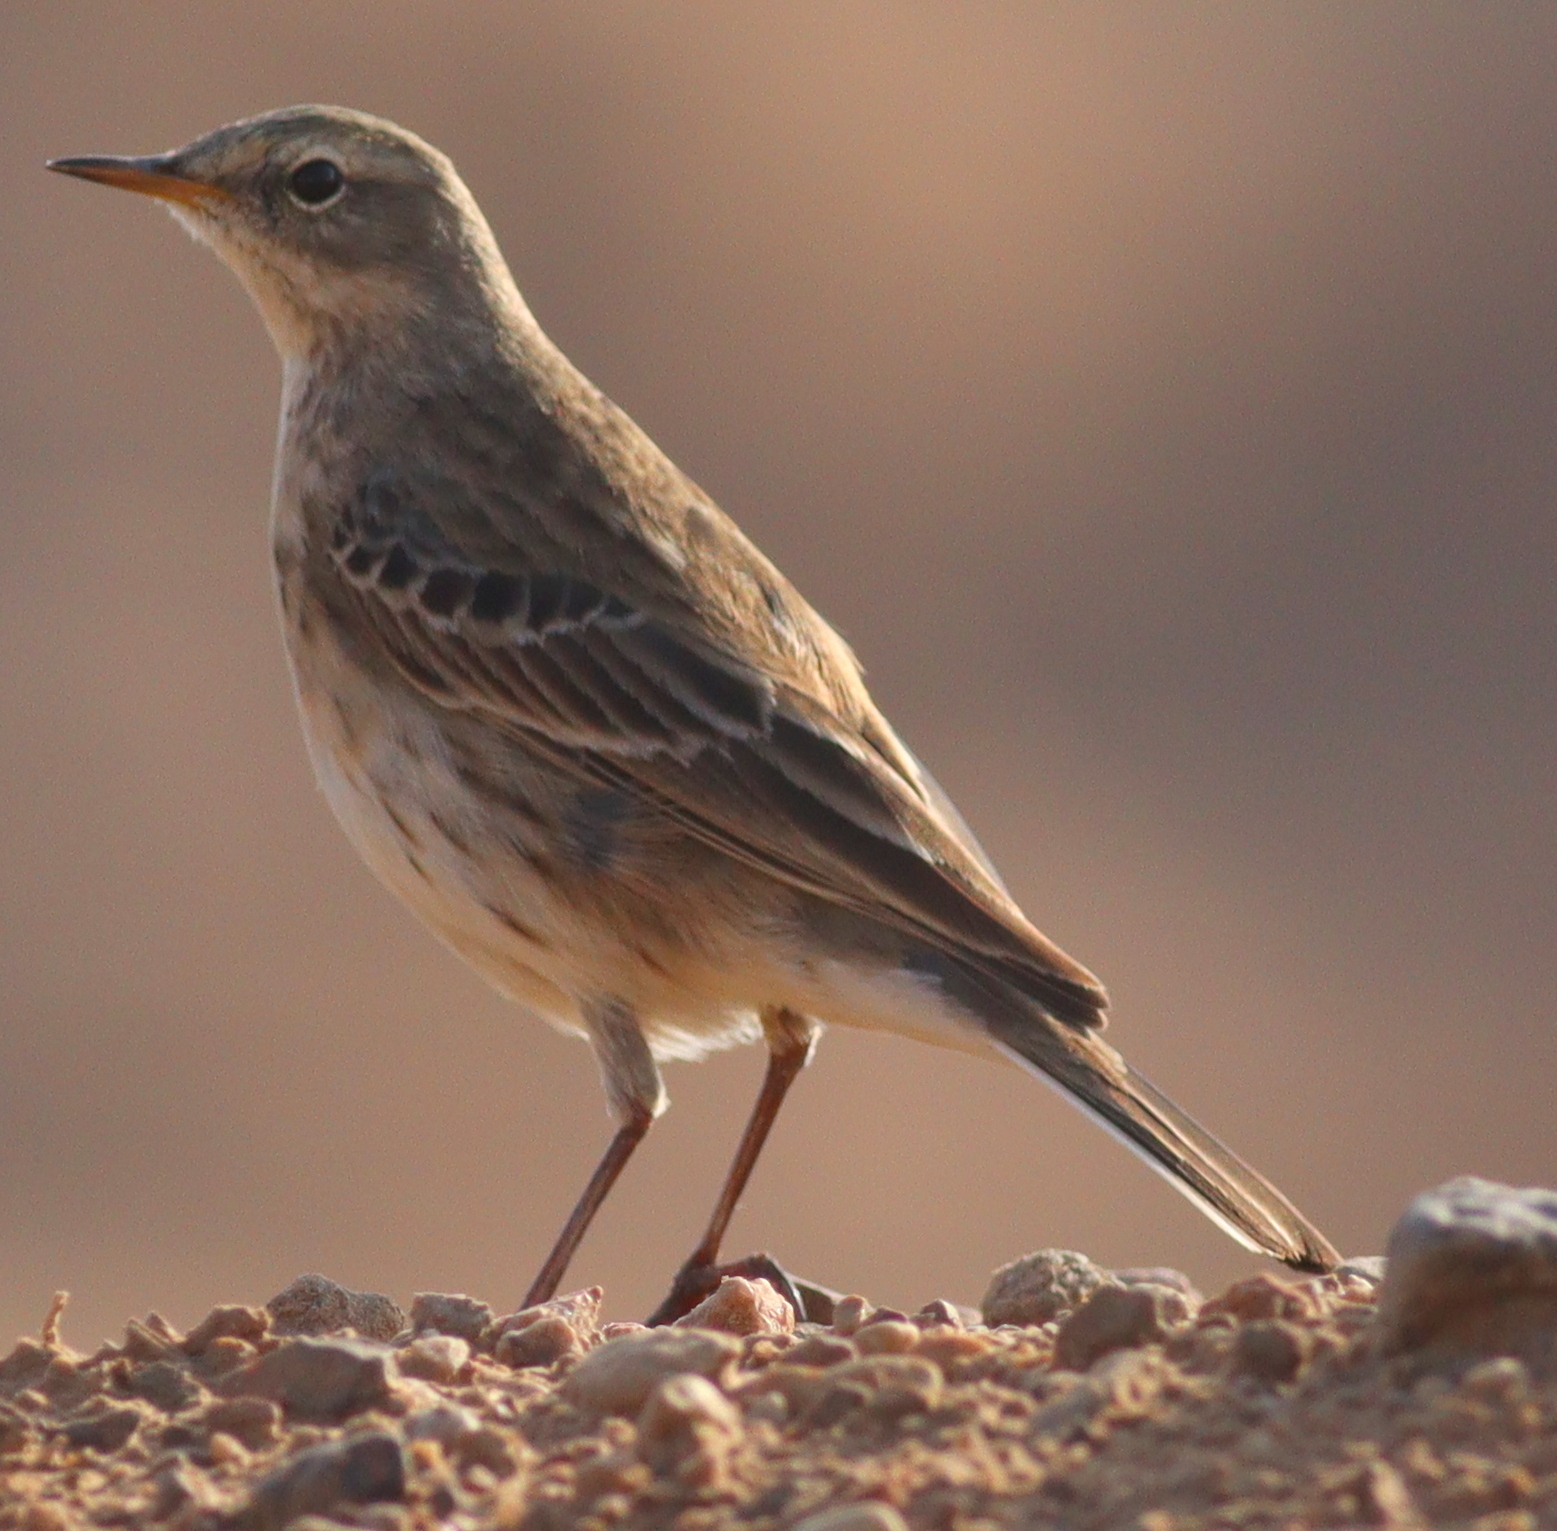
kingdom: Animalia
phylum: Chordata
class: Aves
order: Passeriformes
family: Motacillidae
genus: Anthus
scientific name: Anthus spinoletta
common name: Water pipit
